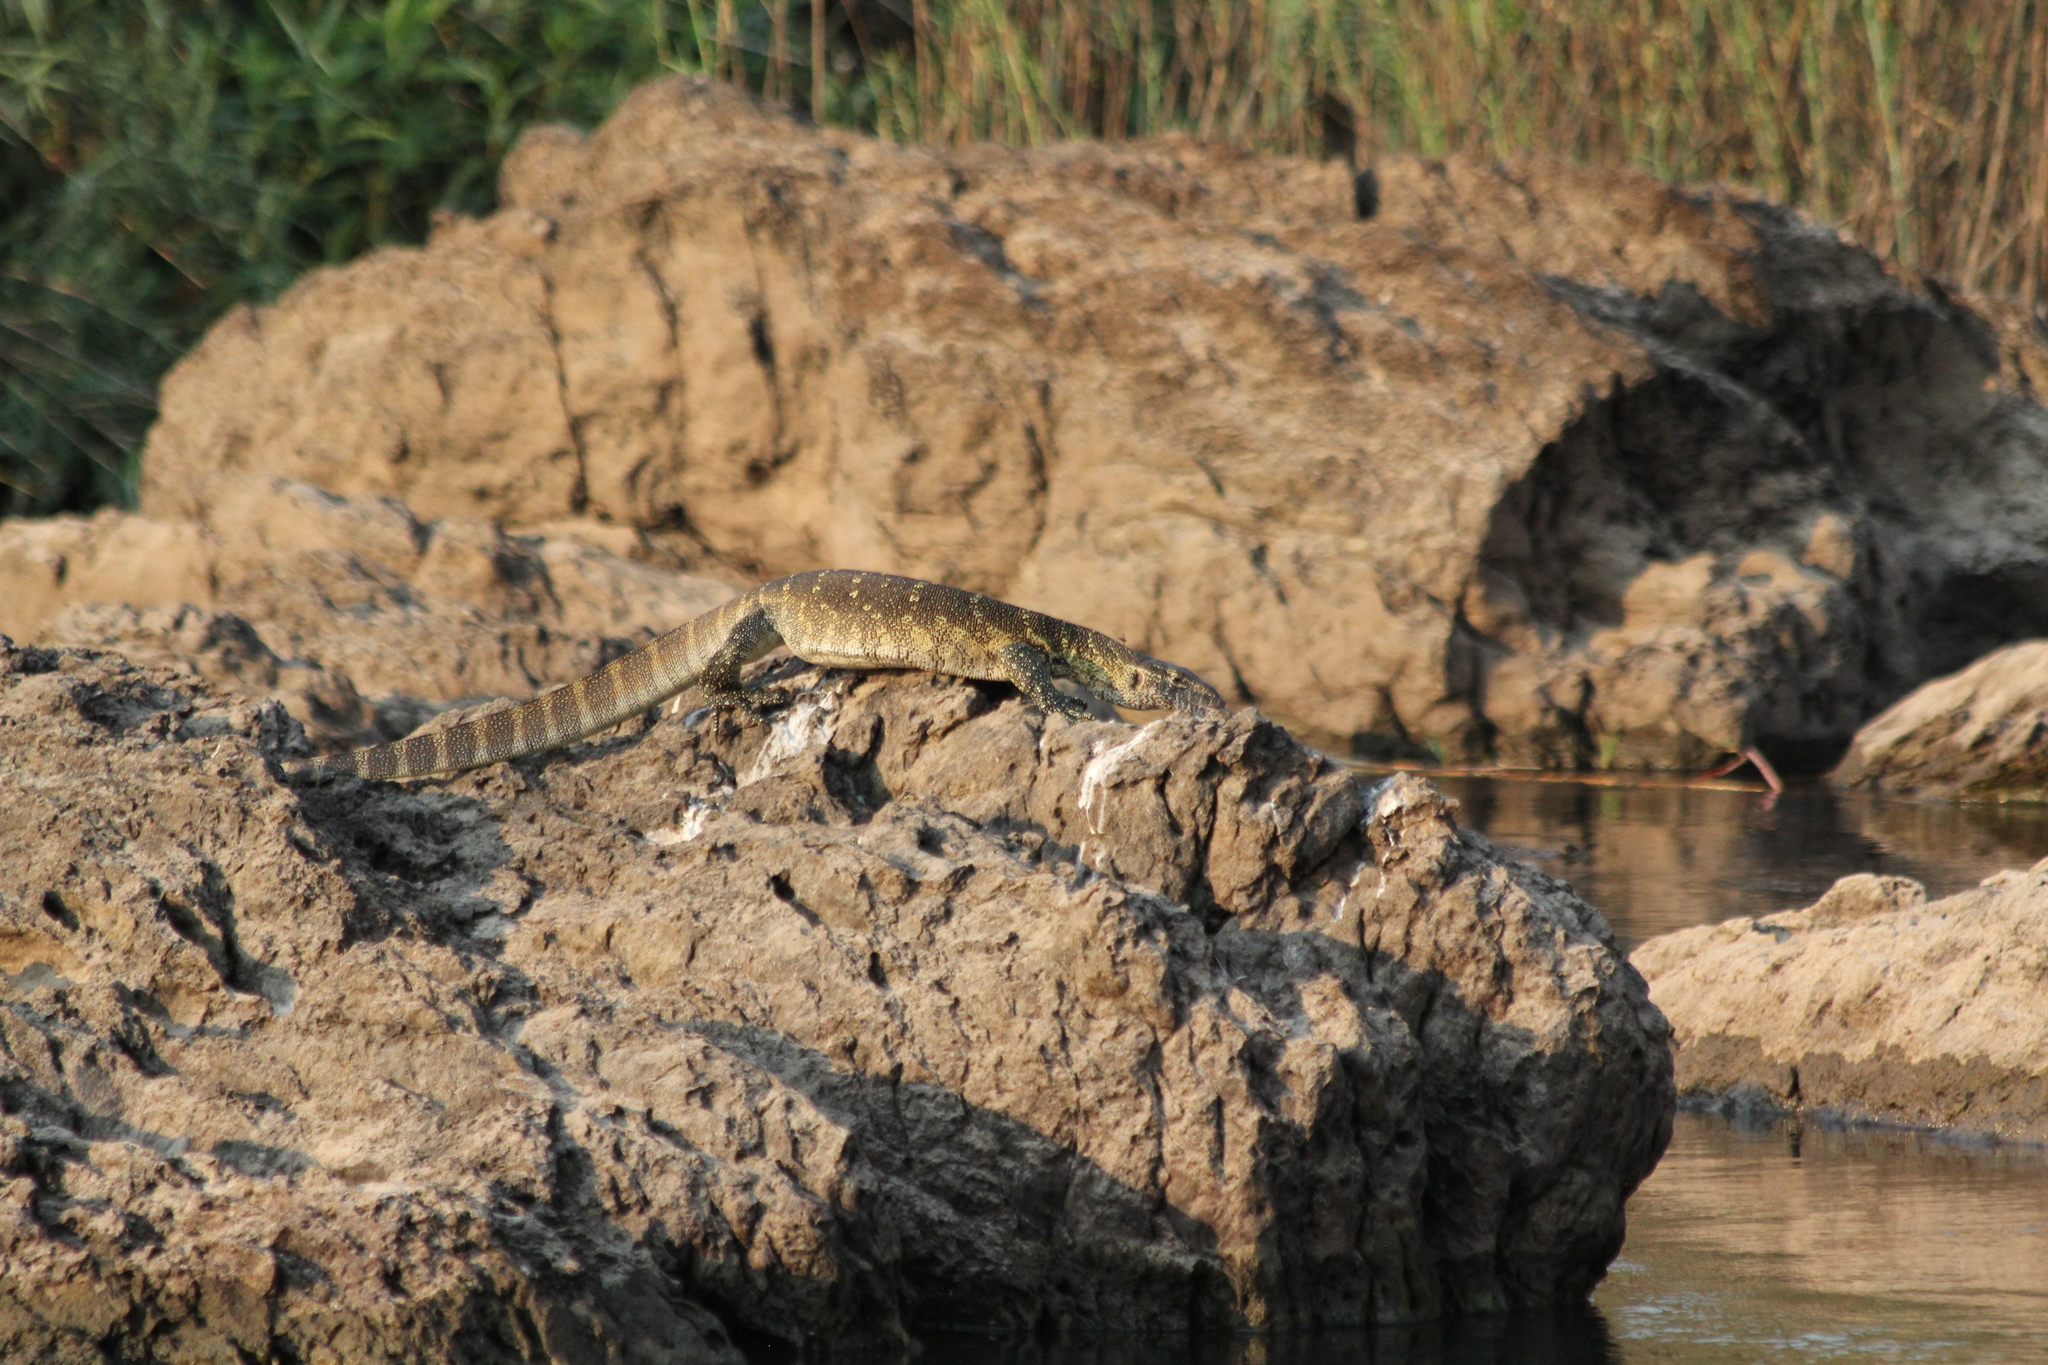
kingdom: Animalia
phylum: Chordata
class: Squamata
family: Varanidae
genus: Varanus
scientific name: Varanus niloticus
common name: Nile monitor
